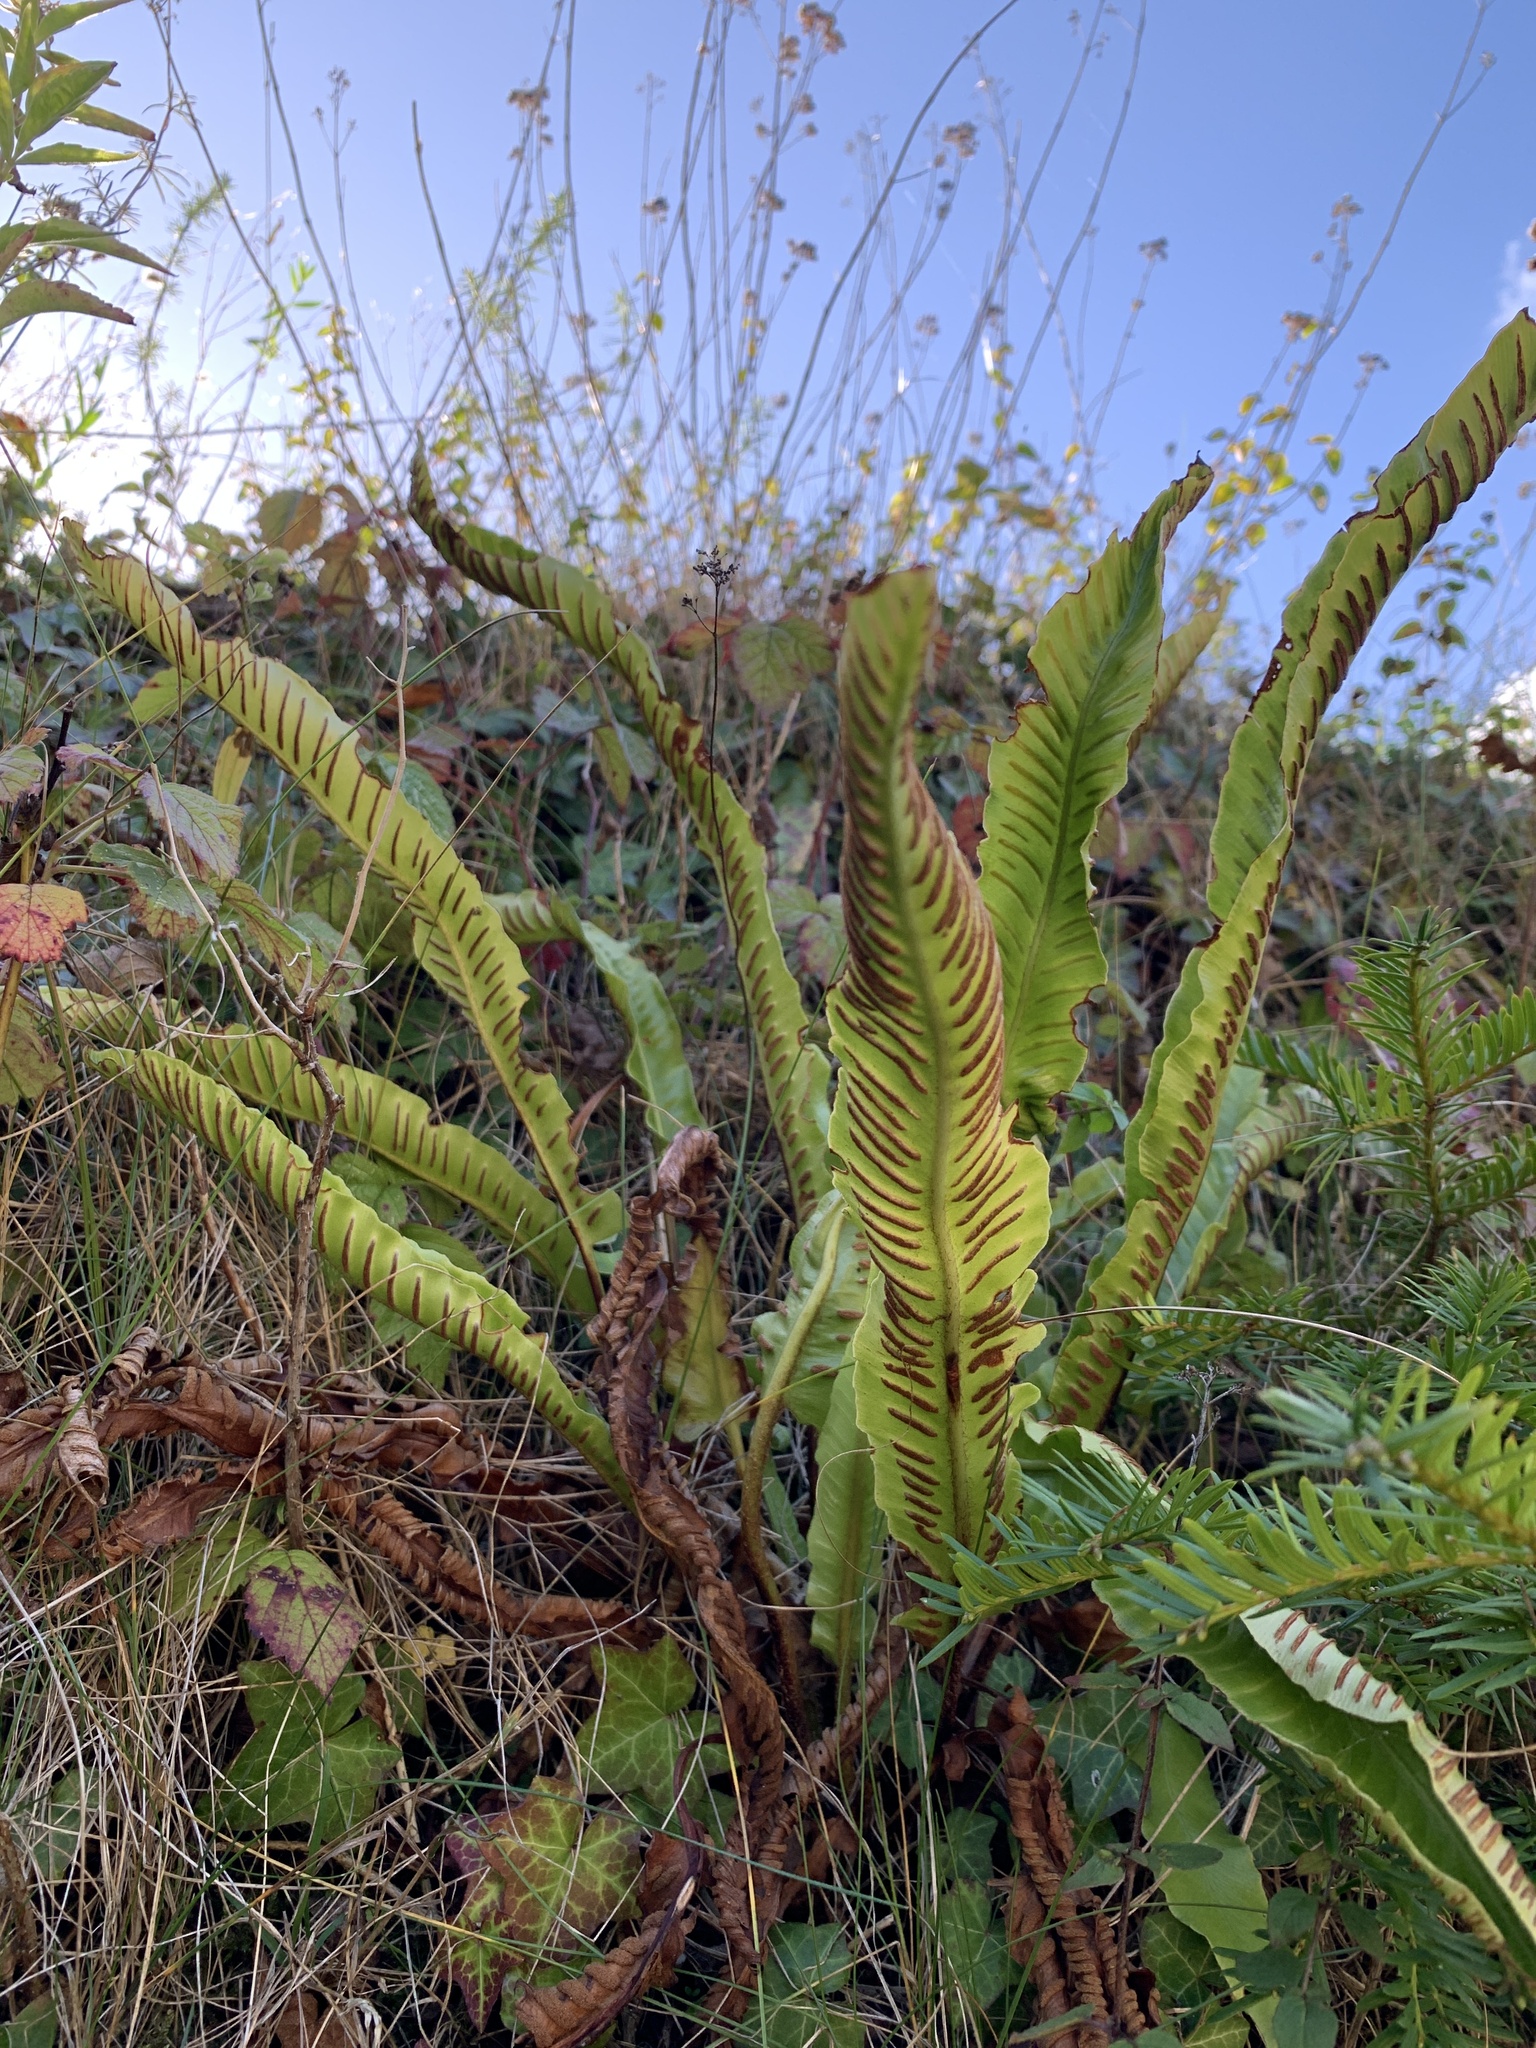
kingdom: Plantae
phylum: Tracheophyta
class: Polypodiopsida
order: Polypodiales
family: Aspleniaceae
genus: Asplenium
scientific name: Asplenium scolopendrium
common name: Hart's-tongue fern
